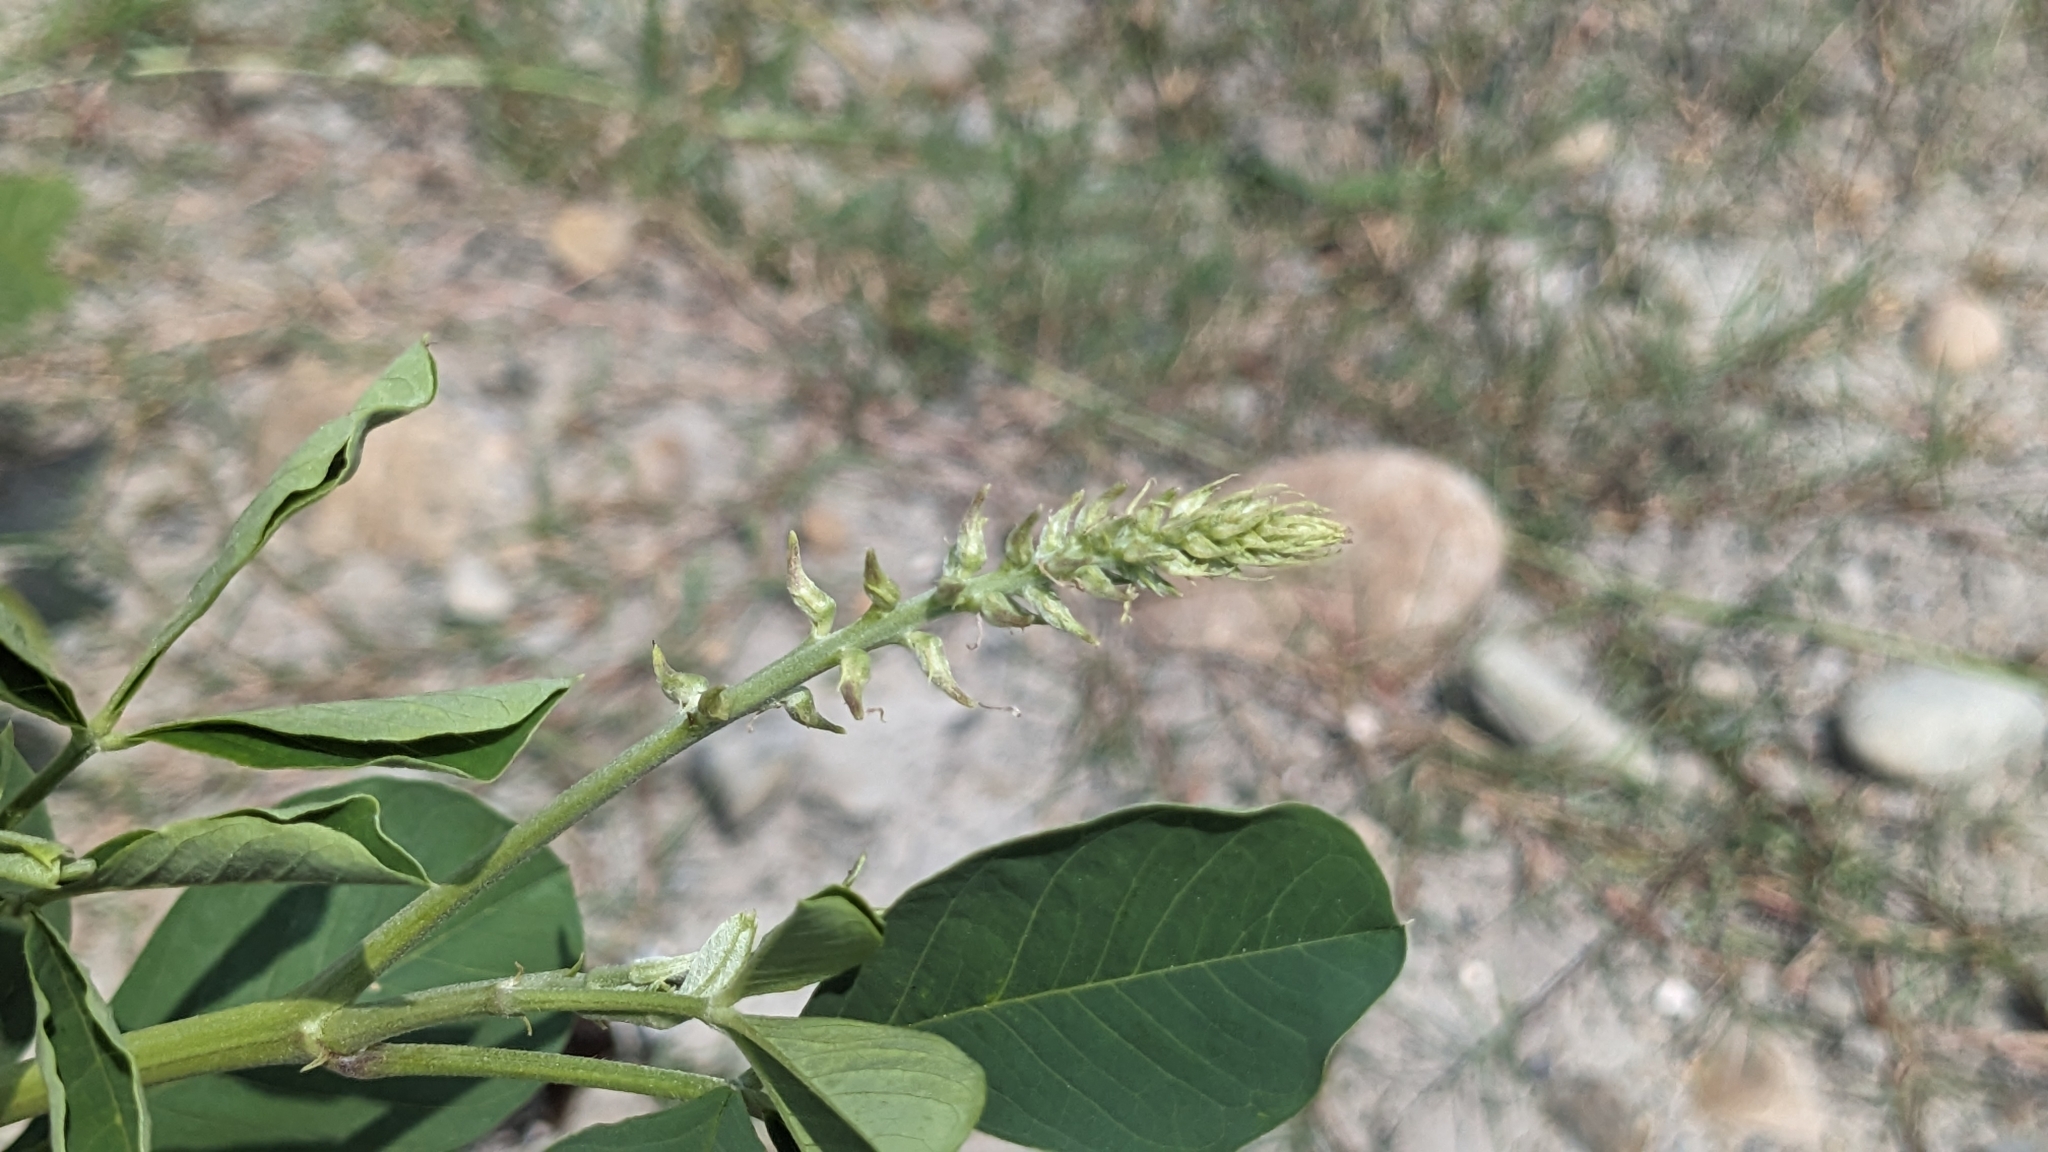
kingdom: Plantae
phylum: Tracheophyta
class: Magnoliopsida
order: Fabales
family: Fabaceae
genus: Crotalaria
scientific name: Crotalaria pallida
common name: Smooth rattlebox
